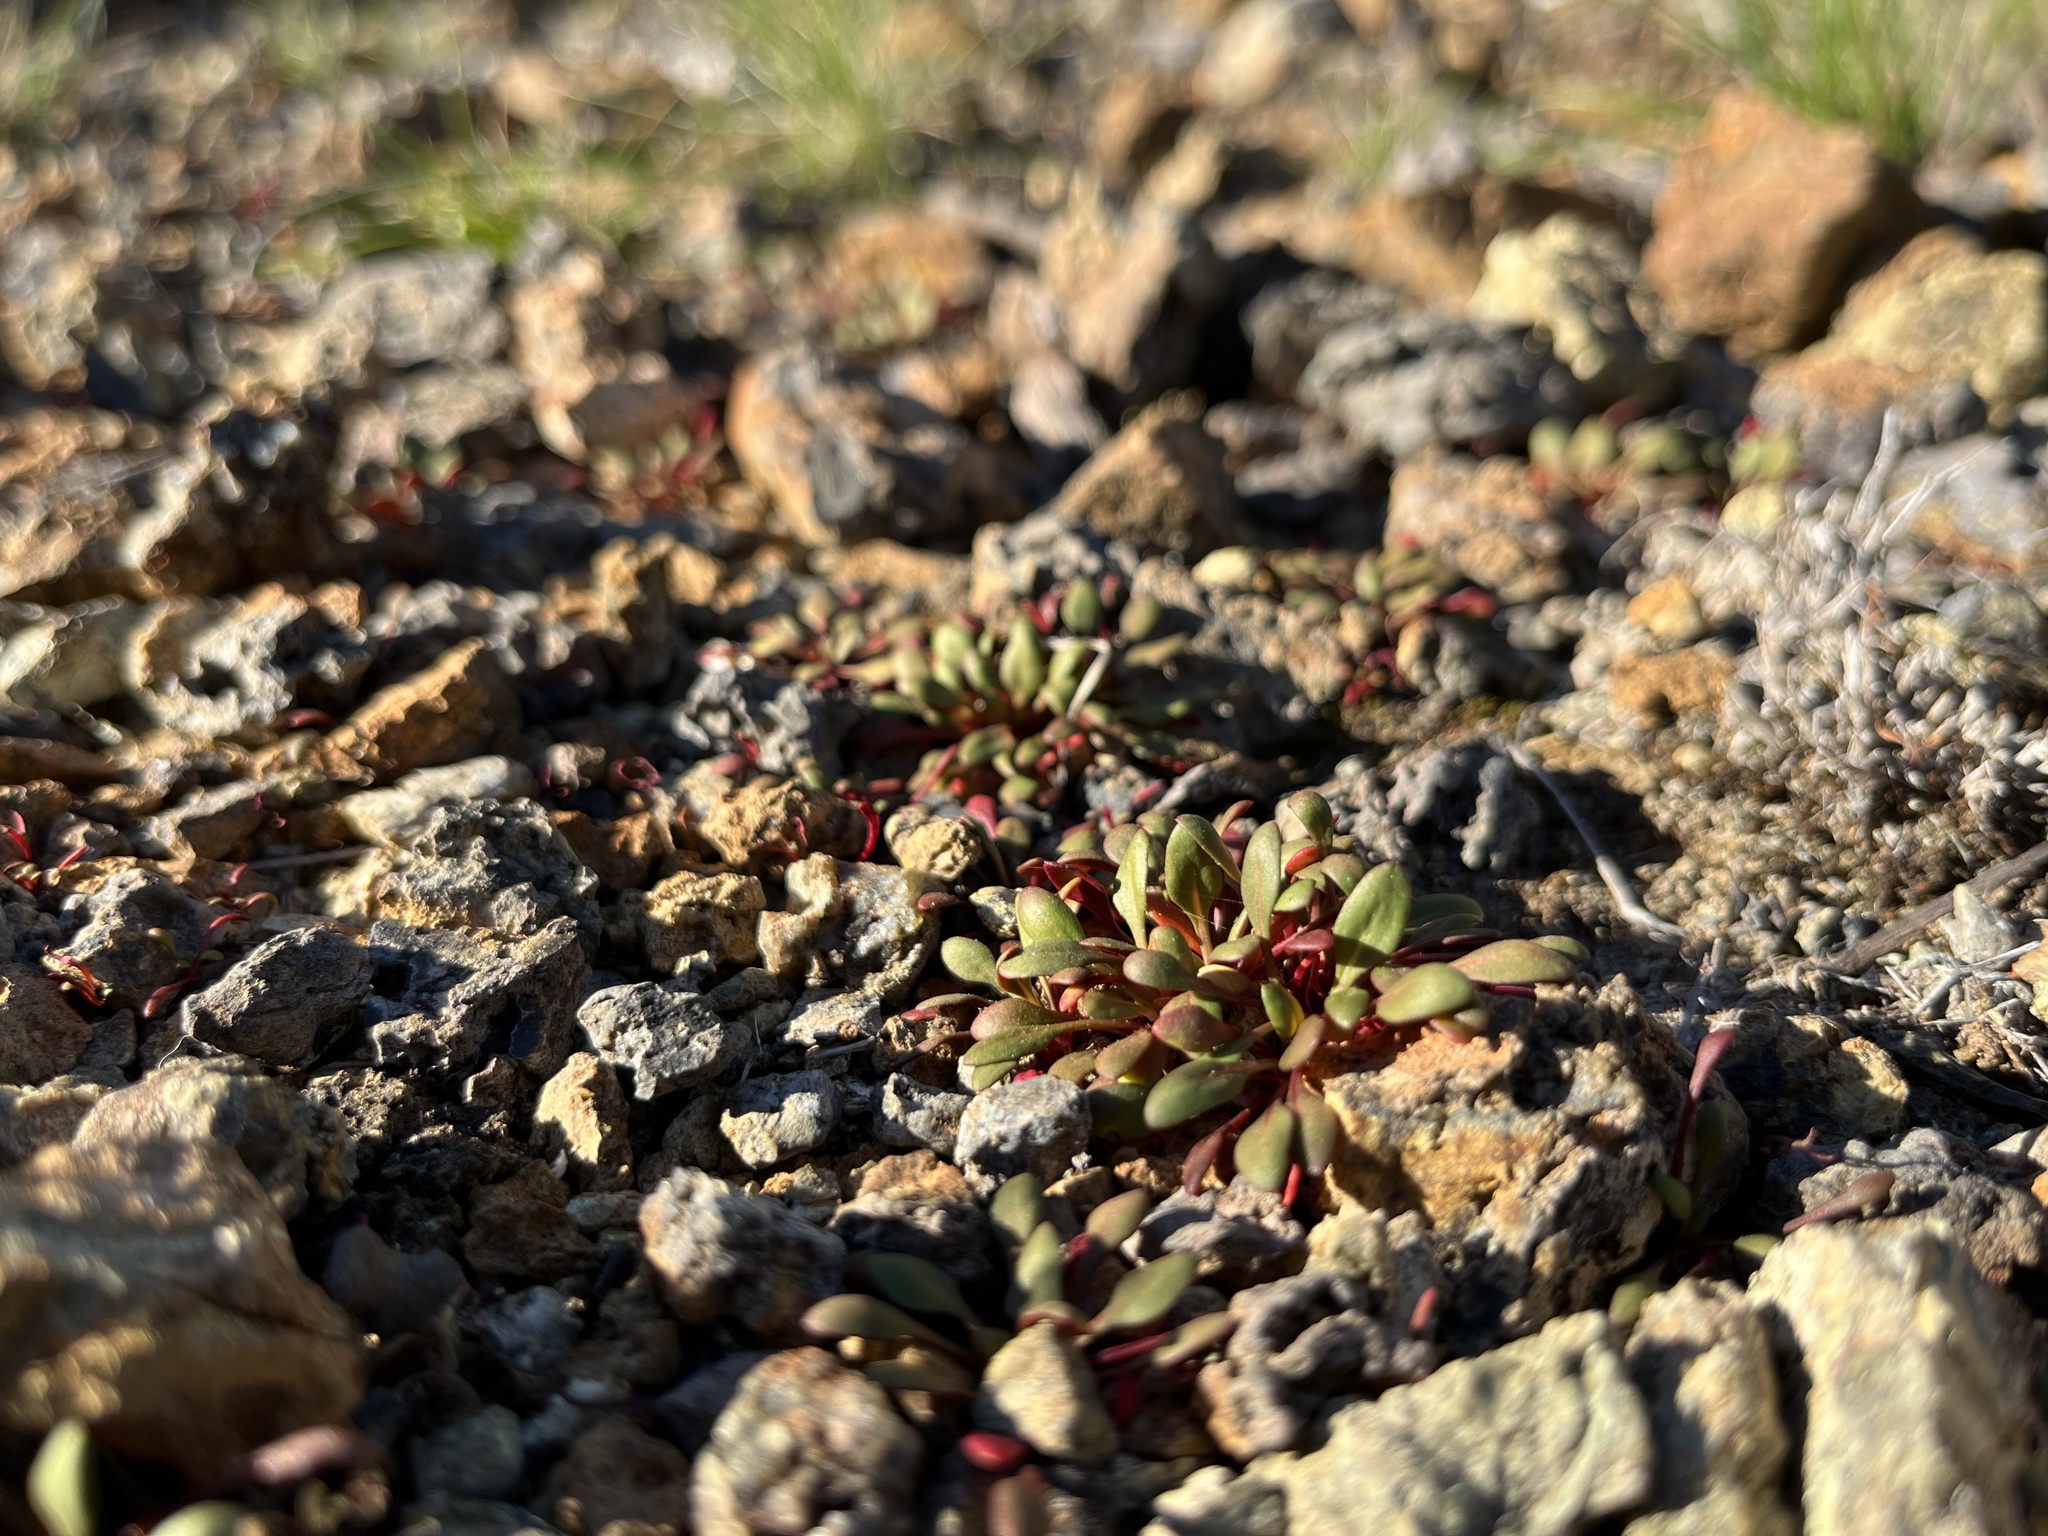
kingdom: Plantae
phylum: Tracheophyta
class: Magnoliopsida
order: Caryophyllales
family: Polygonaceae
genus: Chorizanthe
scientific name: Chorizanthe aphanantha
